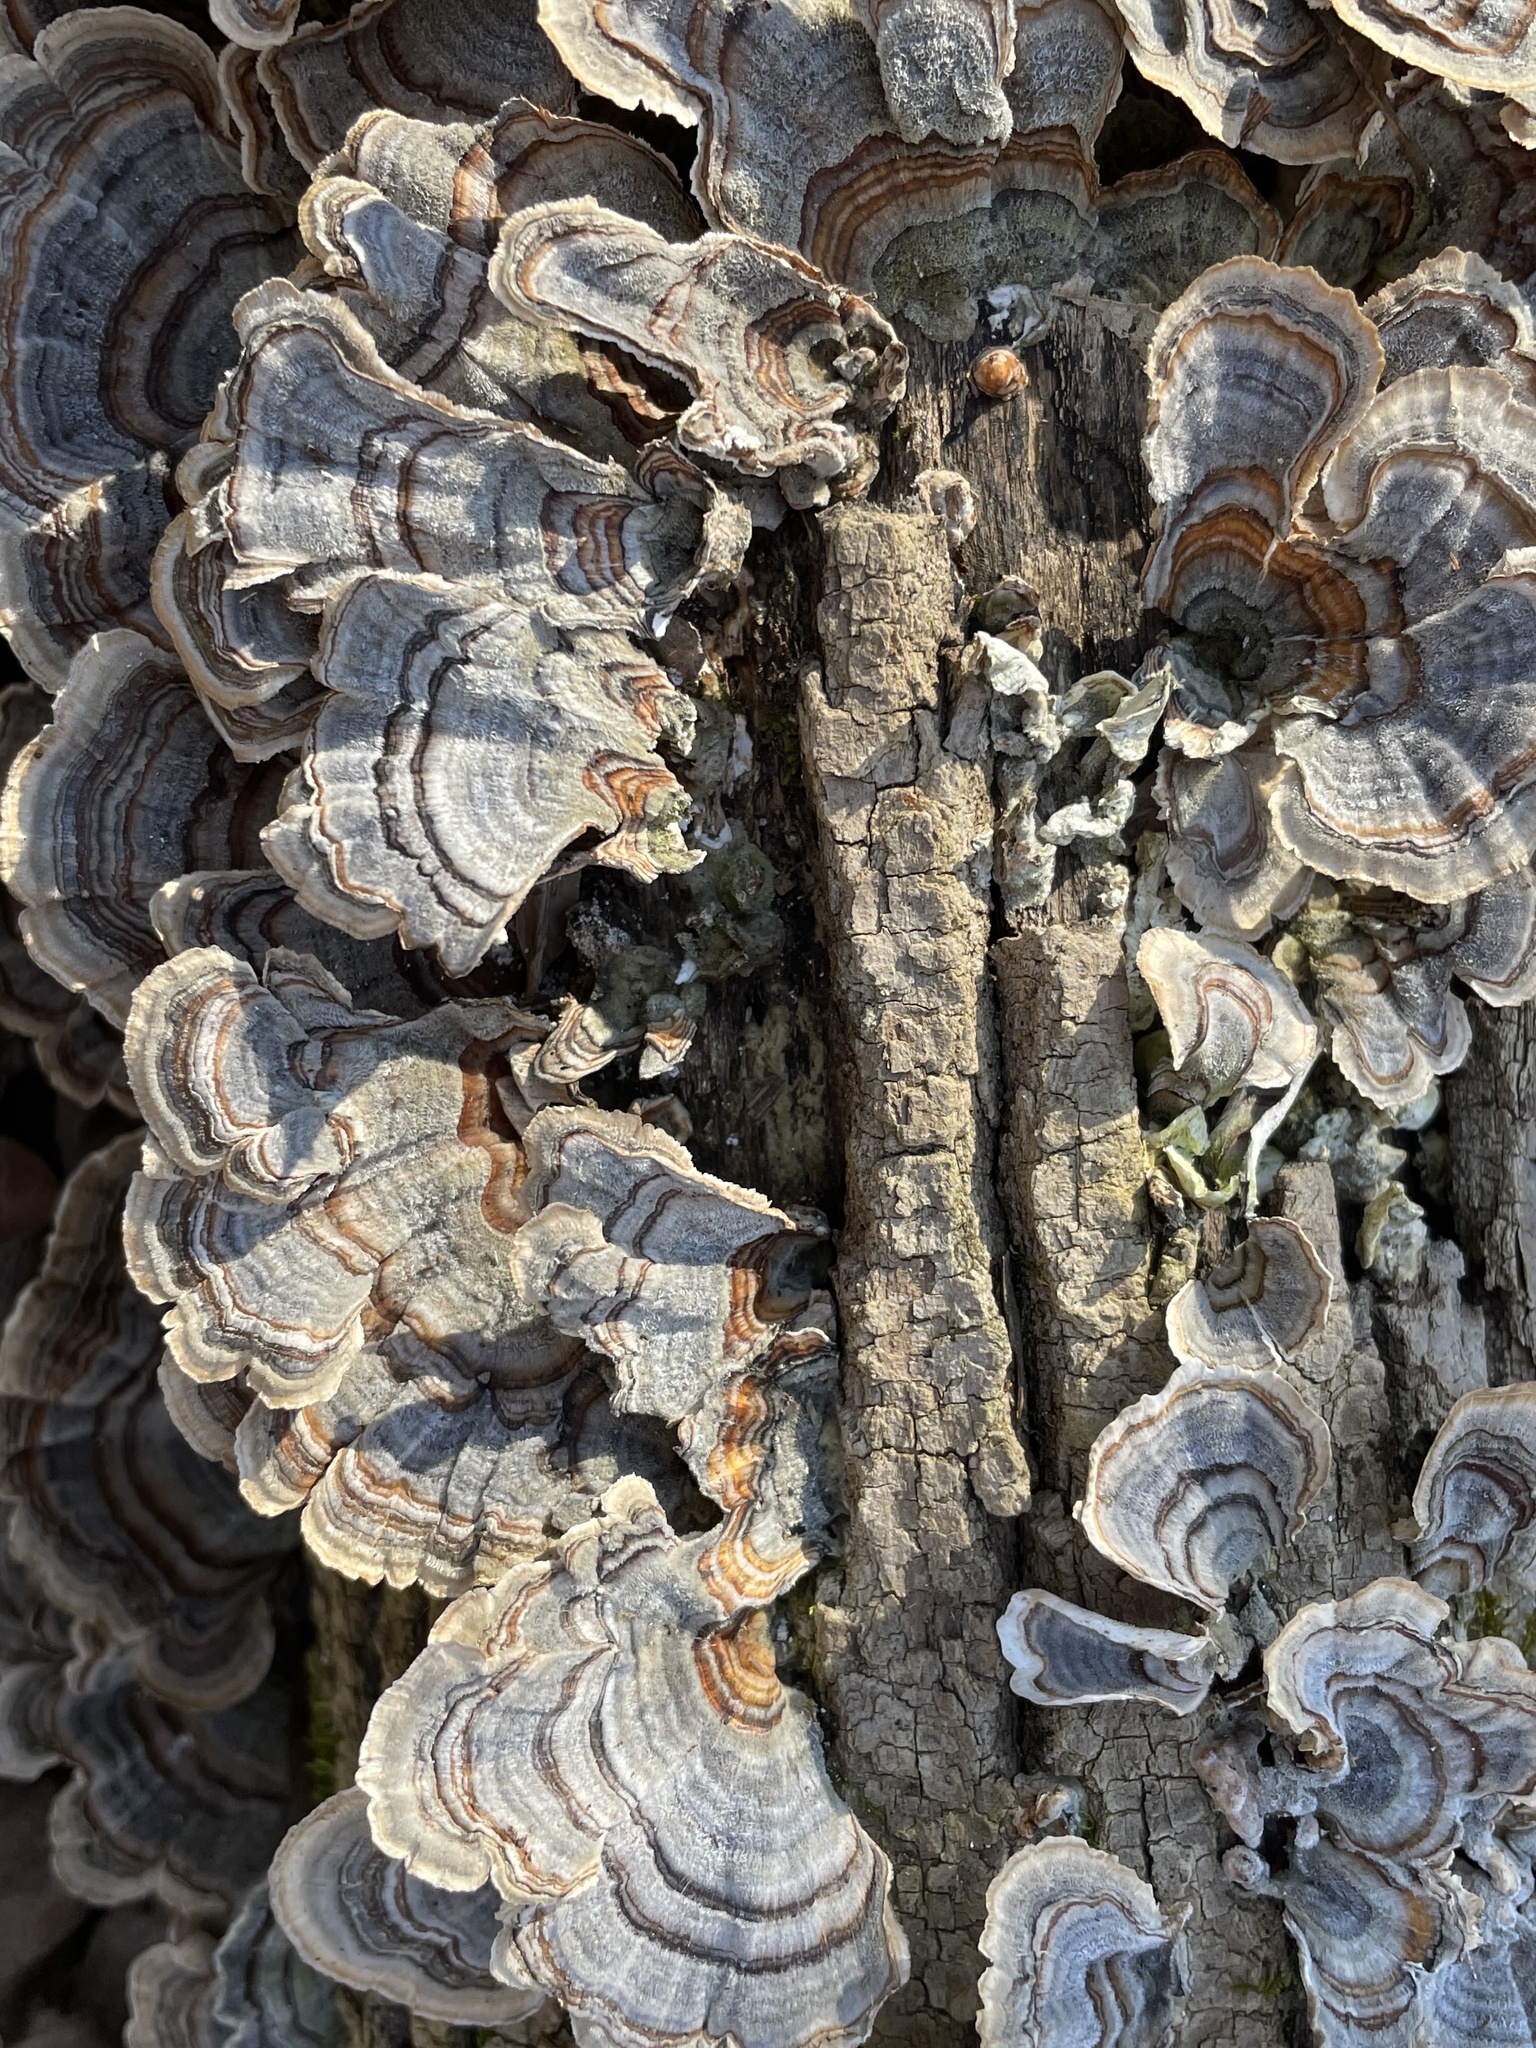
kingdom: Fungi
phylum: Basidiomycota
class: Agaricomycetes
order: Polyporales
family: Polyporaceae
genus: Trametes
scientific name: Trametes versicolor
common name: Turkeytail
